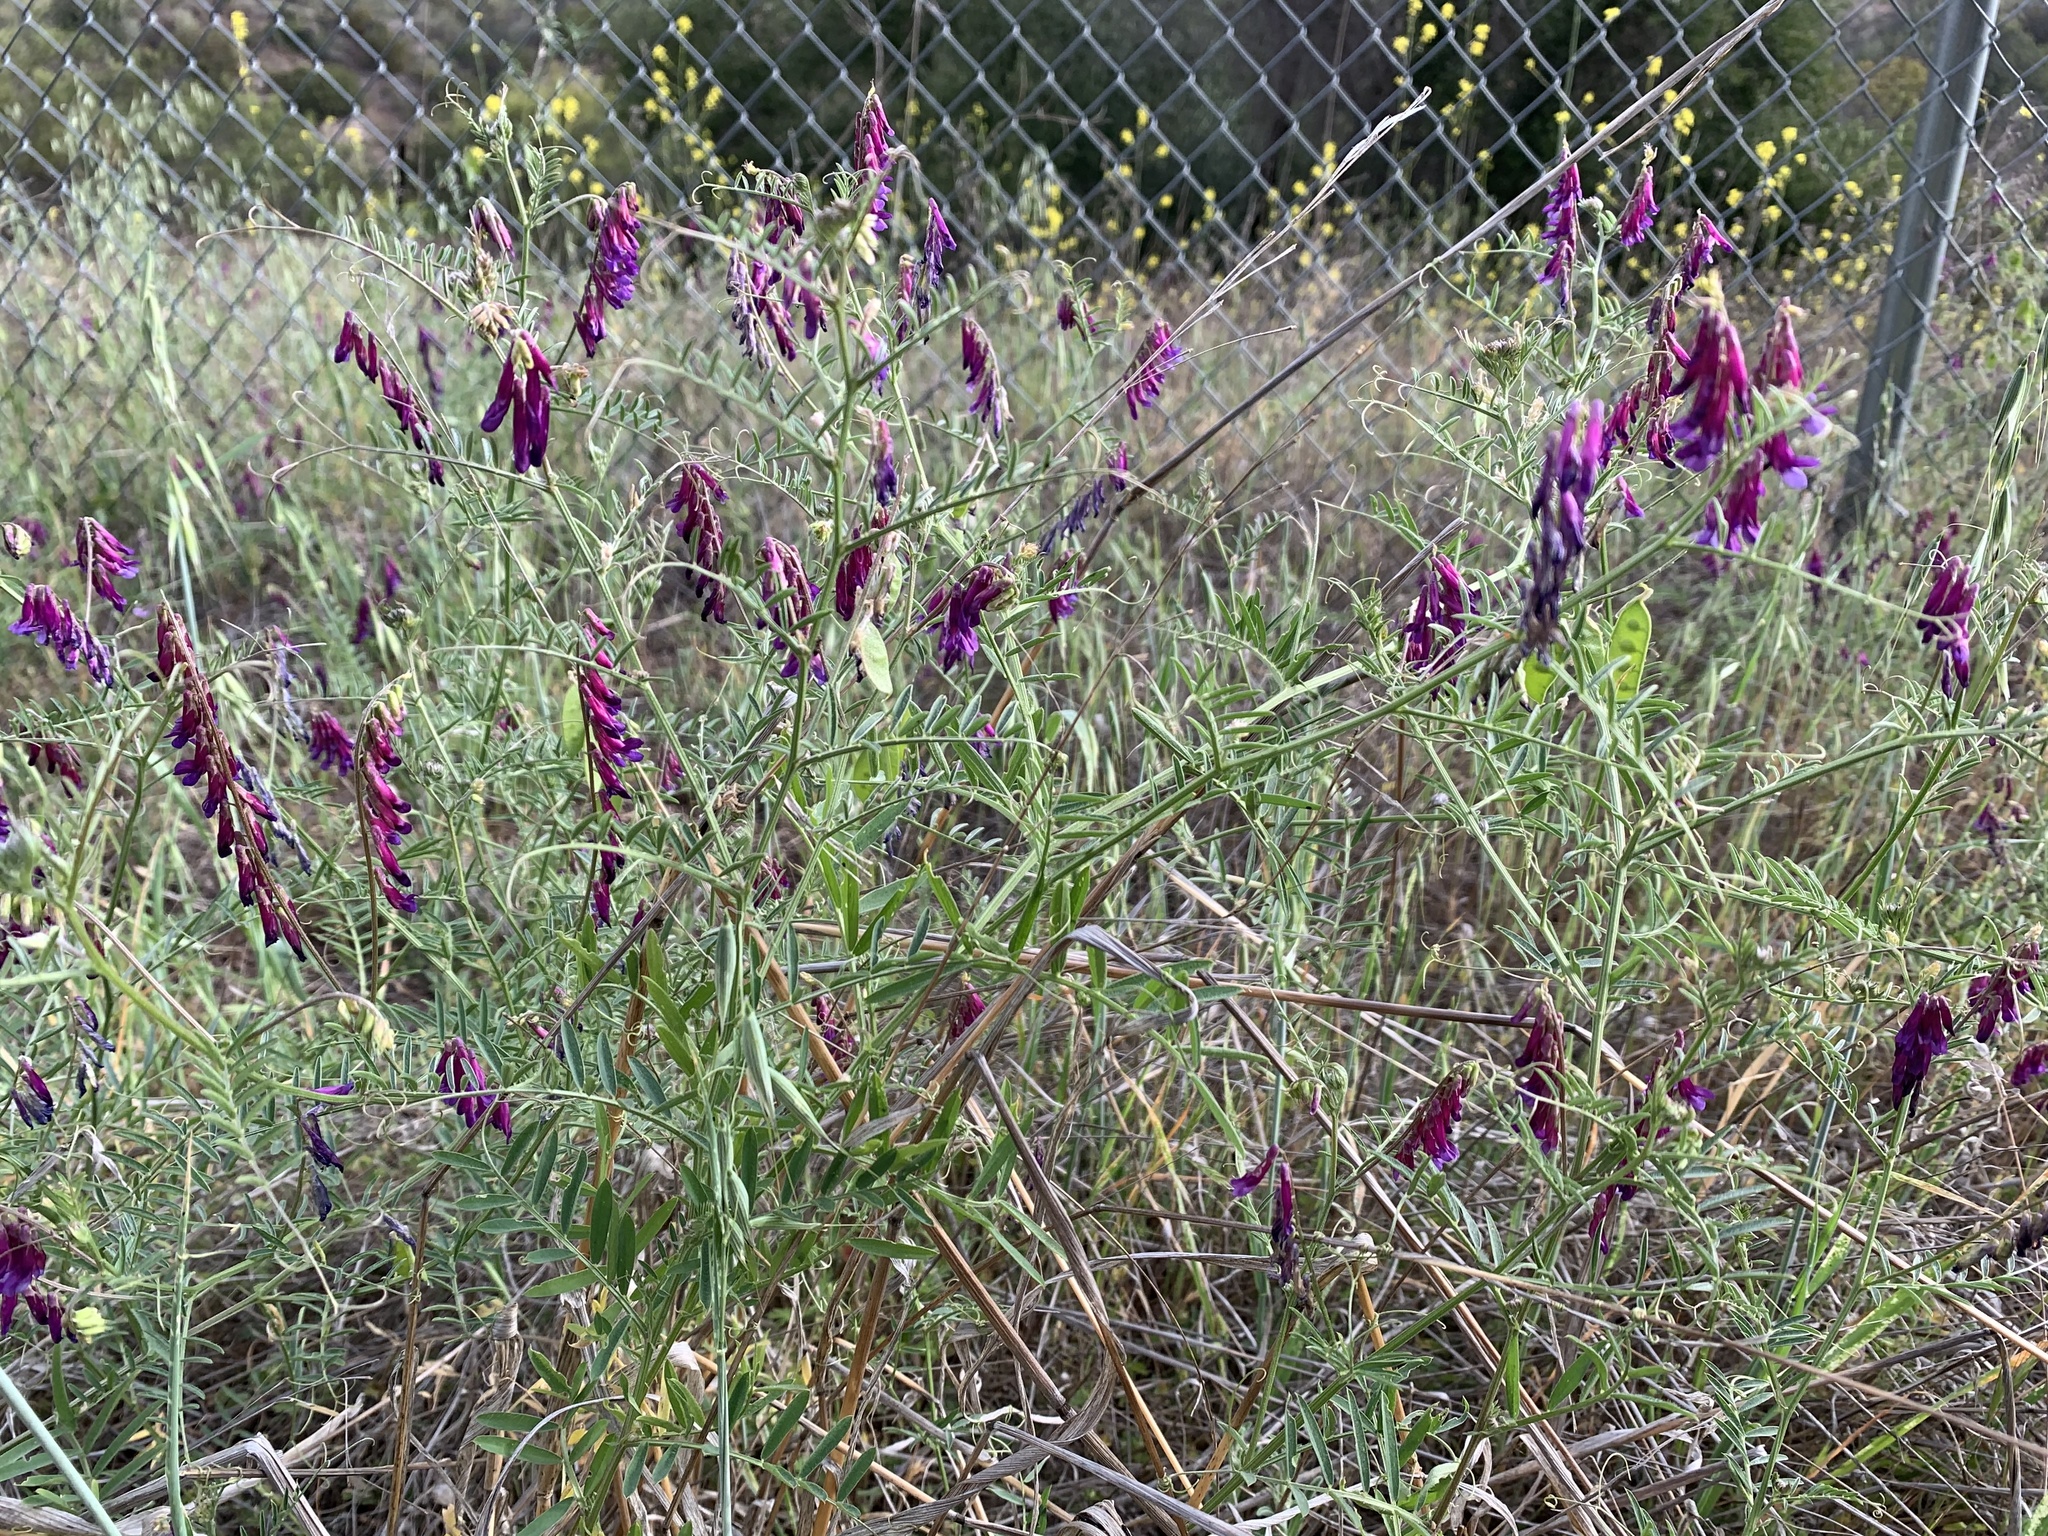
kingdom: Plantae
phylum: Tracheophyta
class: Magnoliopsida
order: Fabales
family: Fabaceae
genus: Vicia
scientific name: Vicia villosa
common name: Fodder vetch
